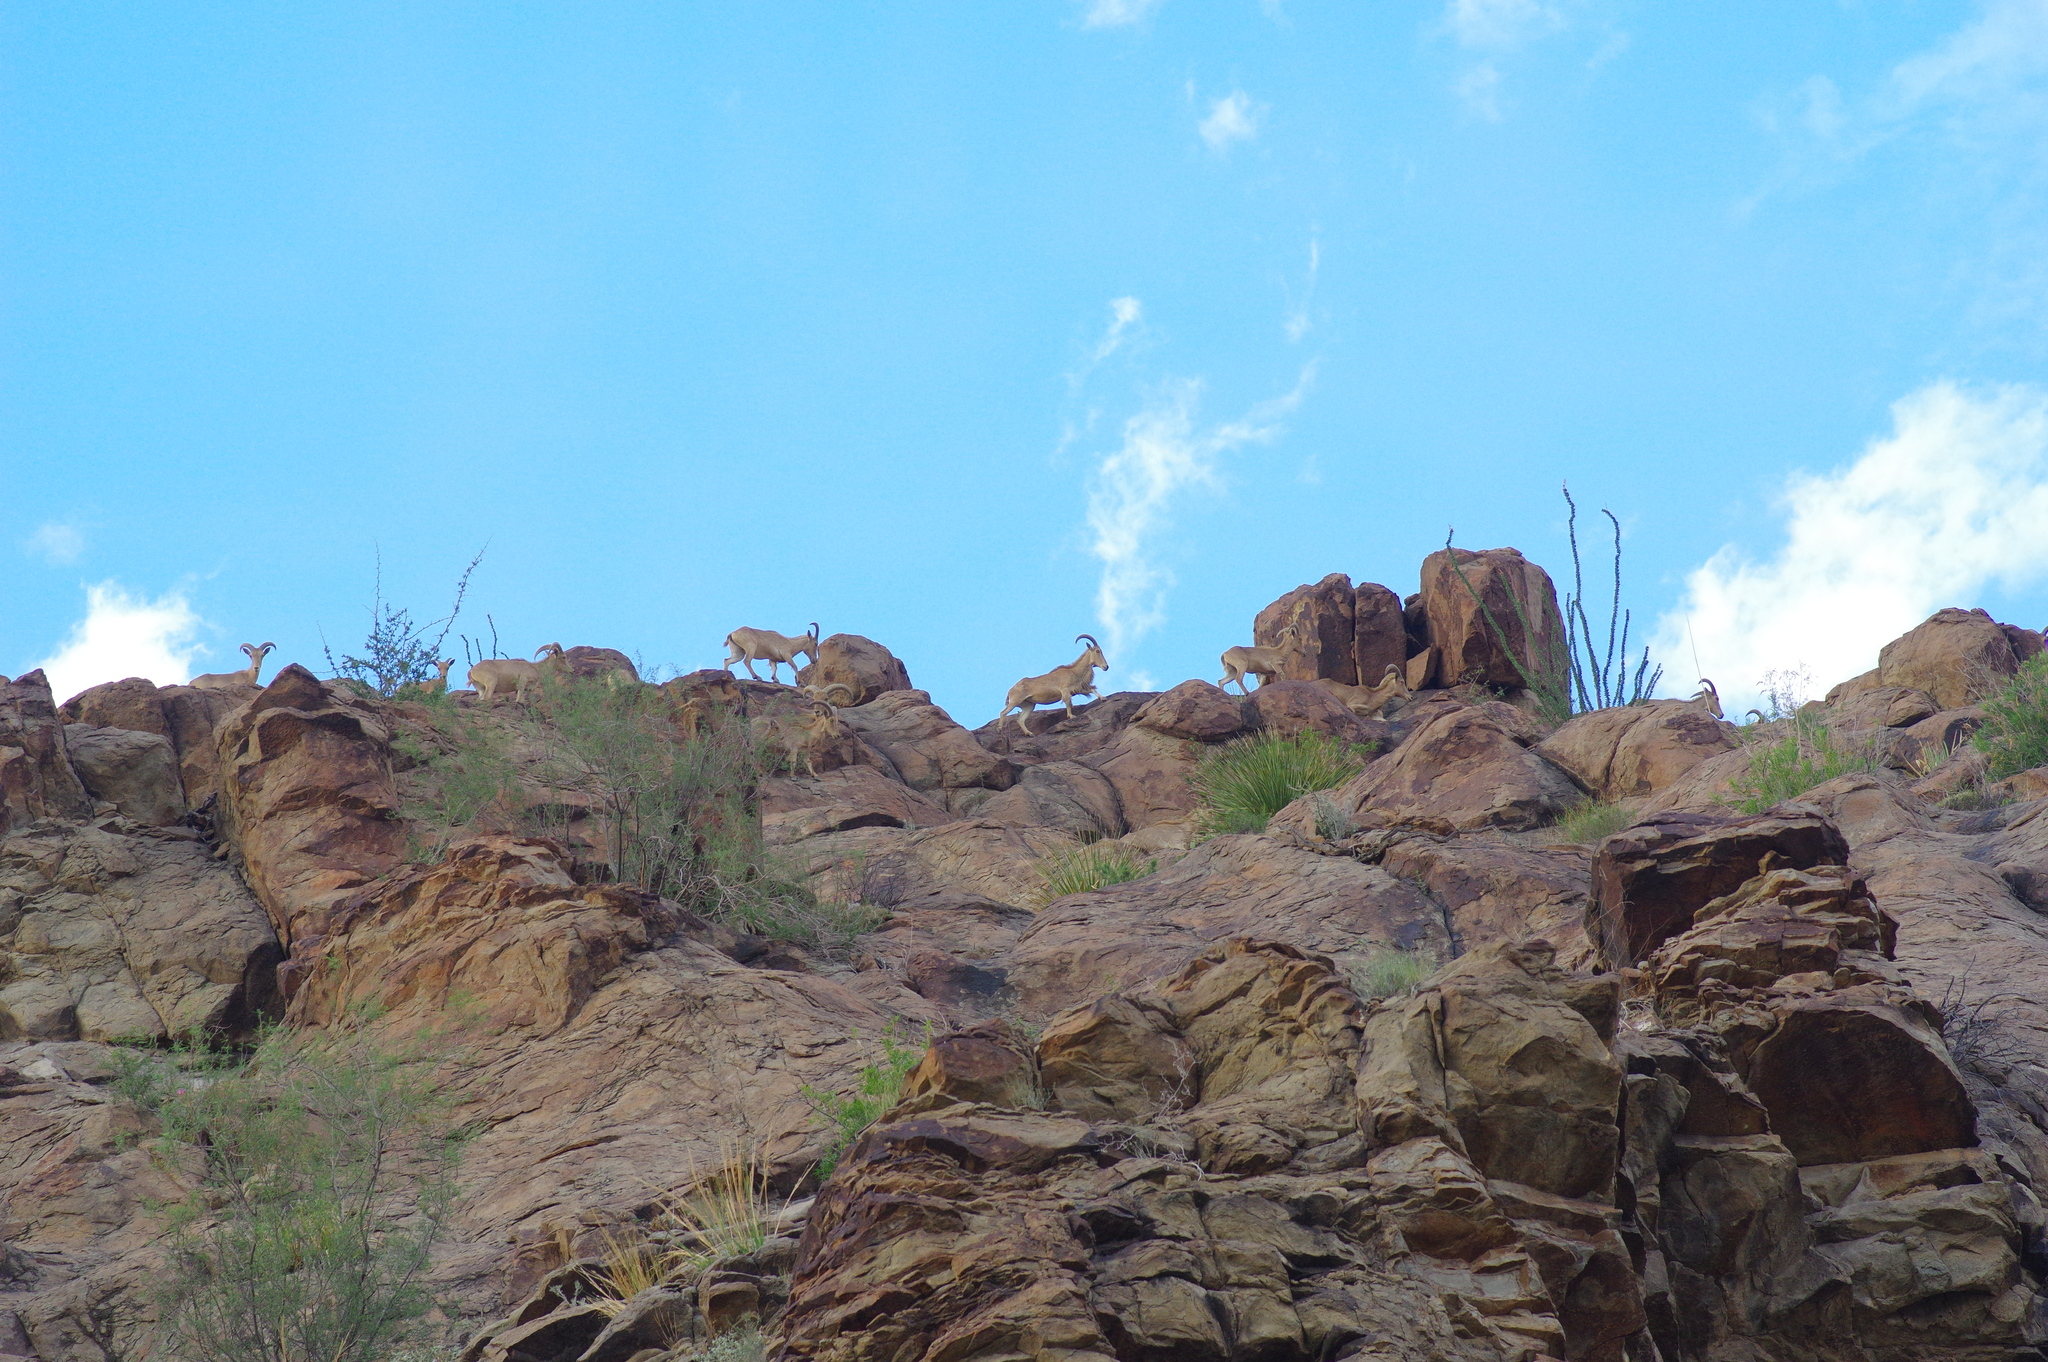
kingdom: Animalia
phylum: Chordata
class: Mammalia
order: Artiodactyla
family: Bovidae
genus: Ammotragus
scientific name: Ammotragus lervia
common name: Barbary sheep
